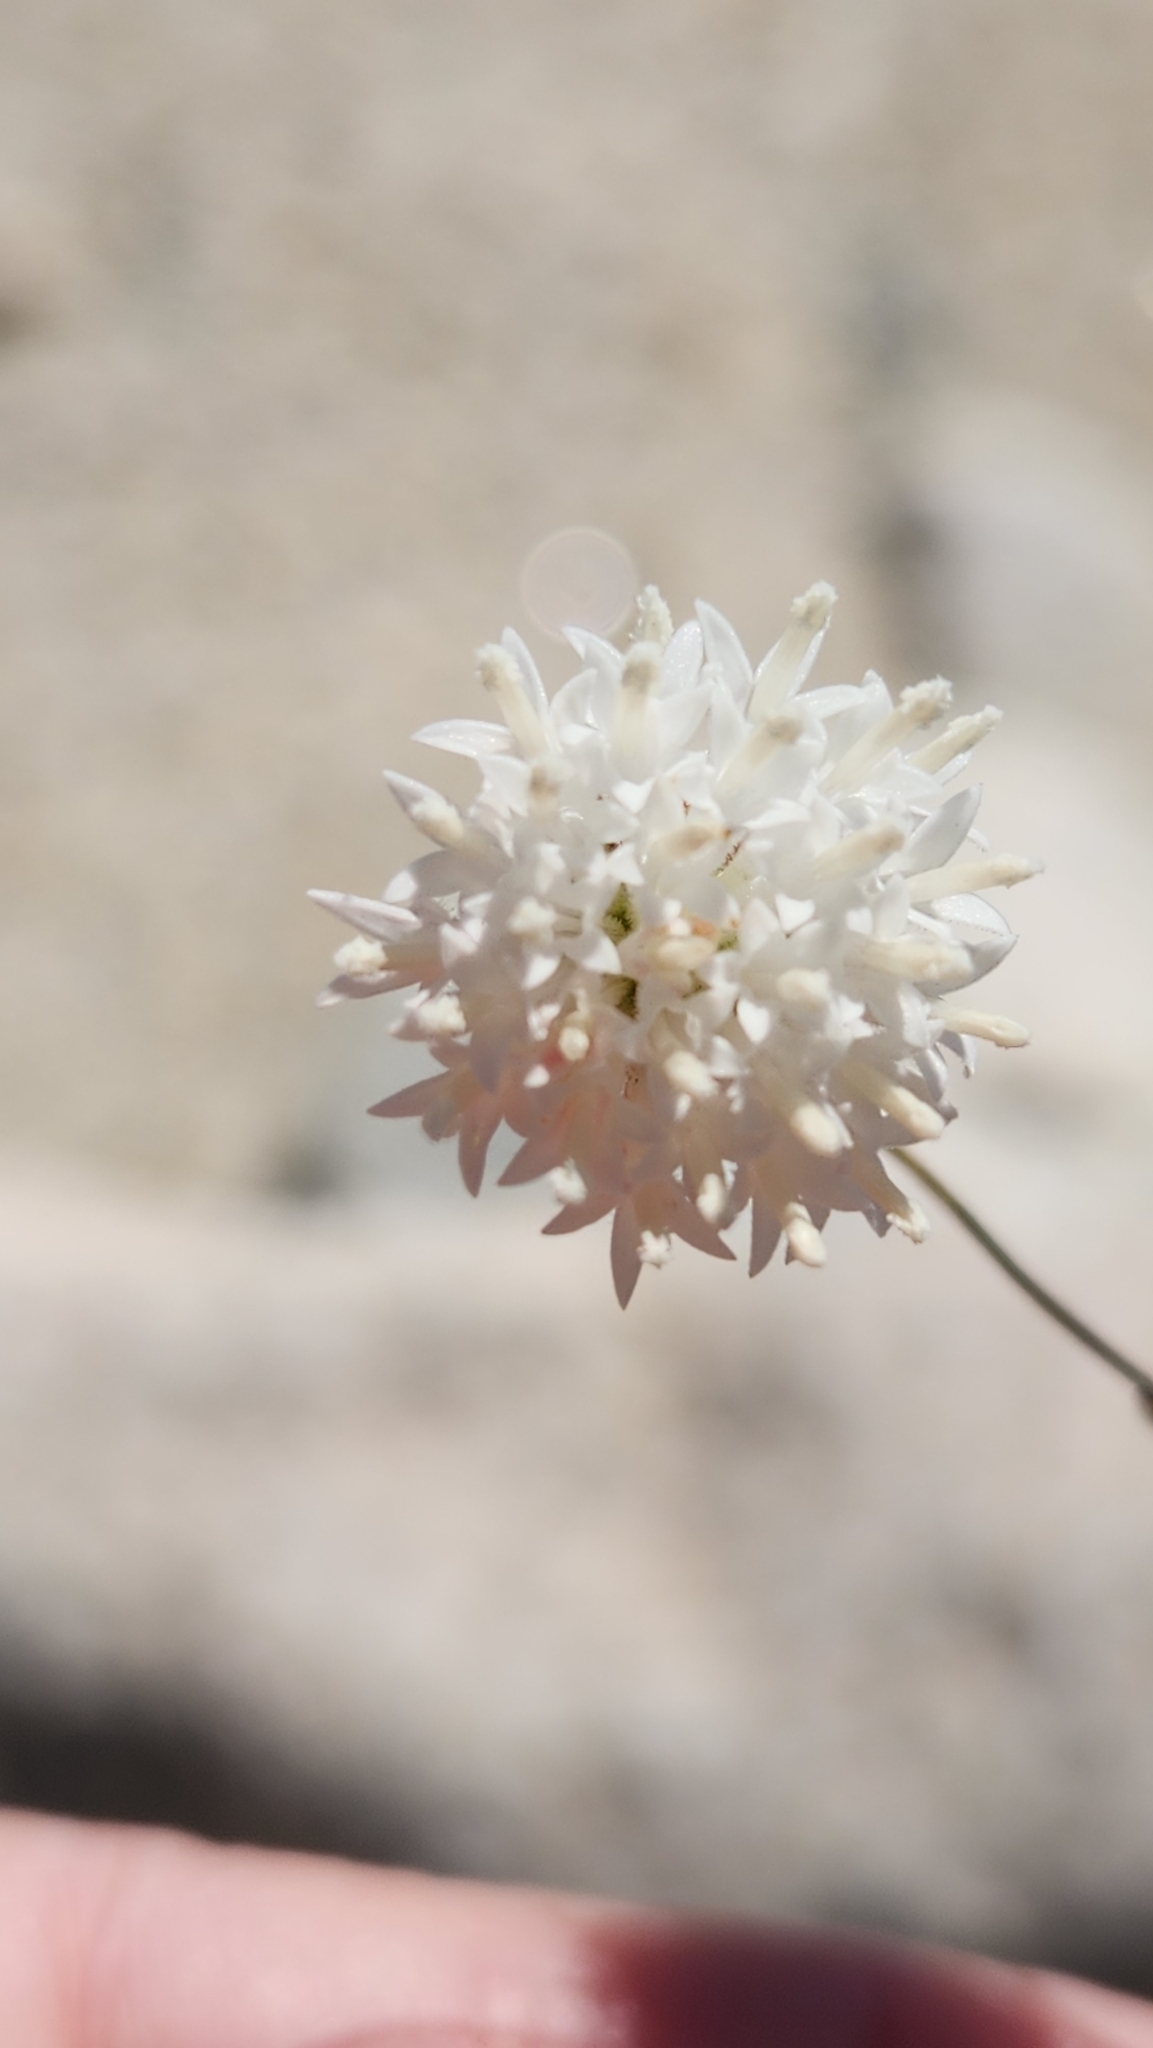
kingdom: Plantae
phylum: Tracheophyta
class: Magnoliopsida
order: Asterales
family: Asteraceae
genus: Chaenactis
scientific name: Chaenactis carphoclinia
